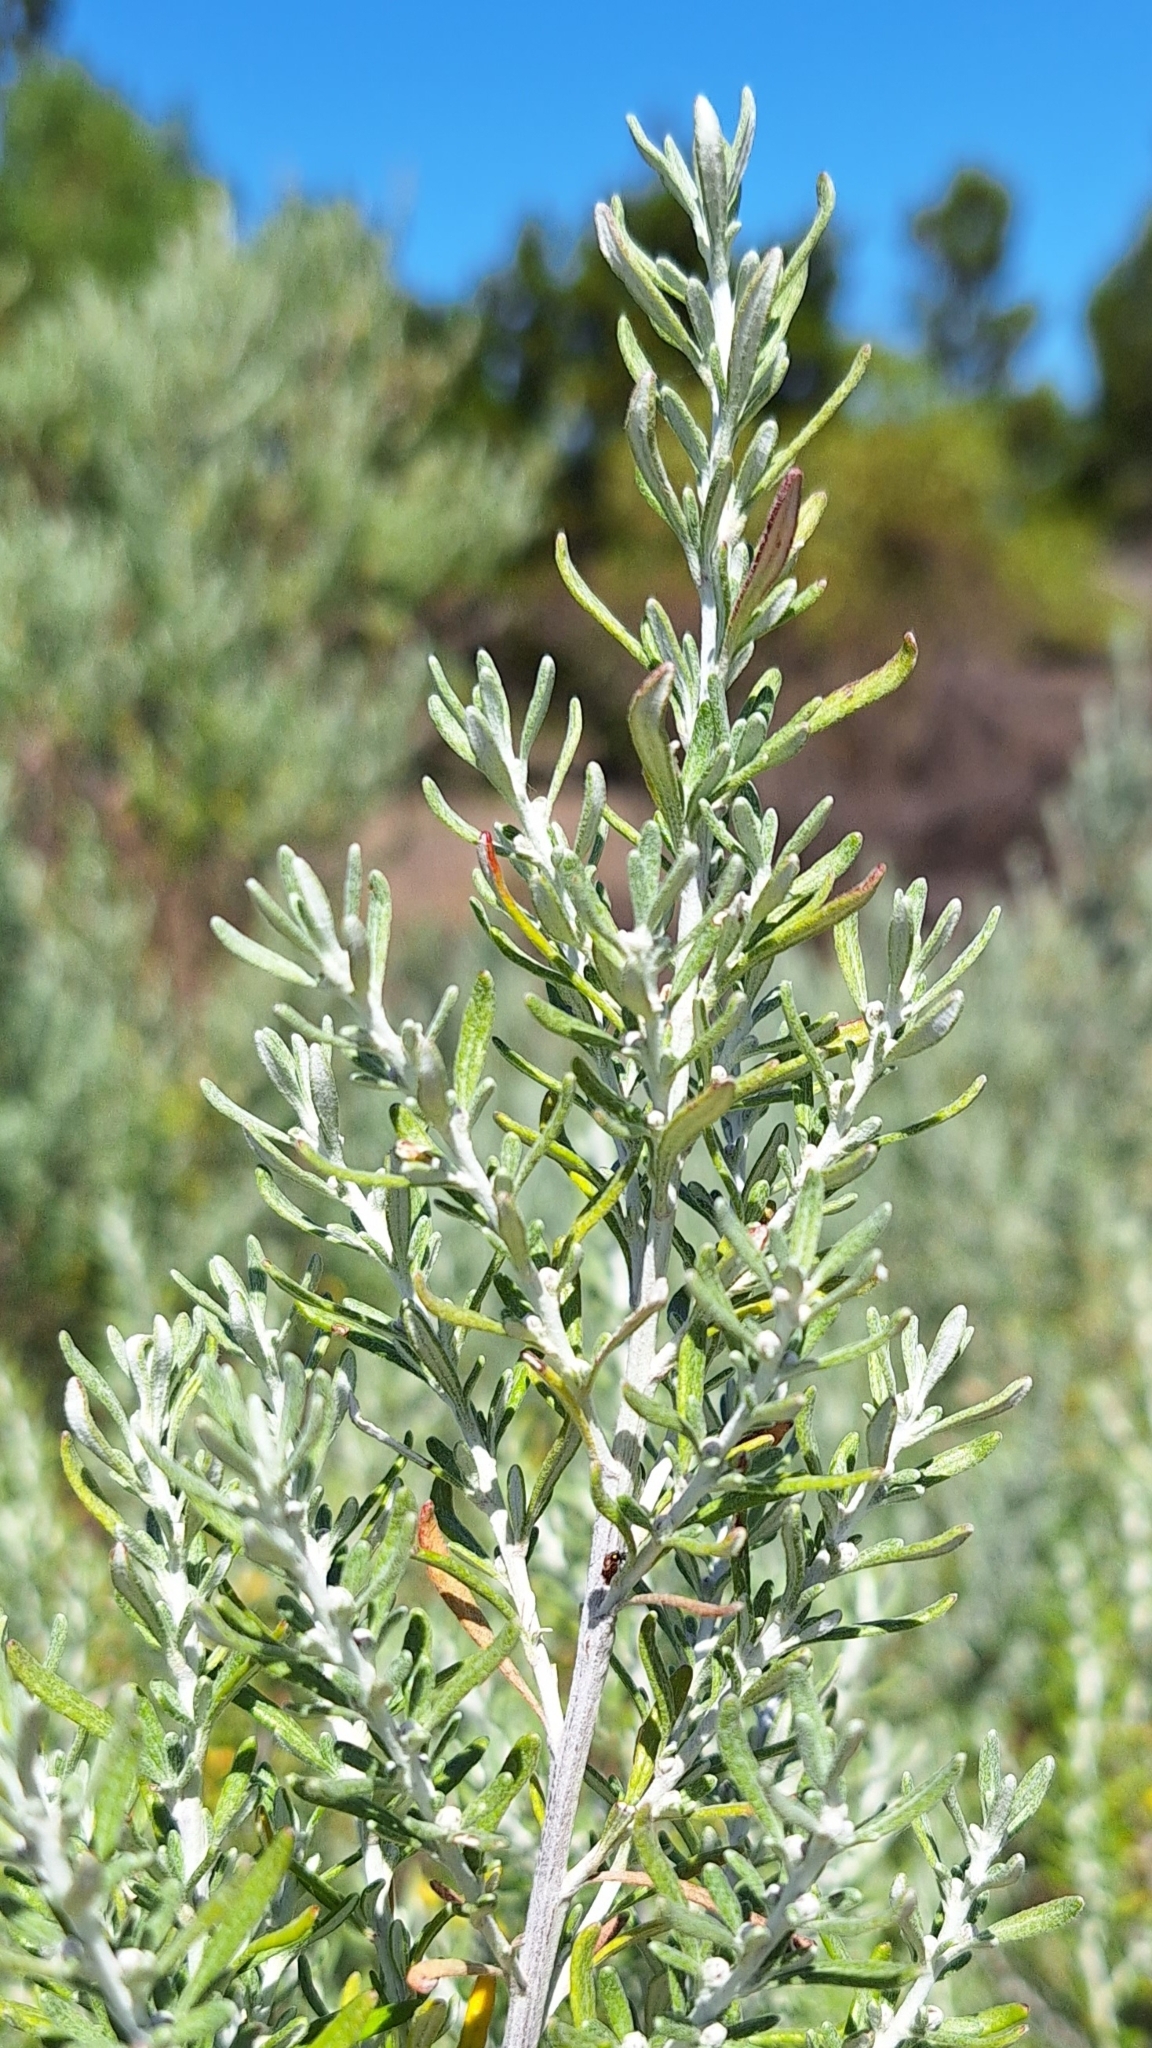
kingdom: Plantae
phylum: Tracheophyta
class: Magnoliopsida
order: Asterales
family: Asteraceae
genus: Olearia
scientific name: Olearia axillaris
